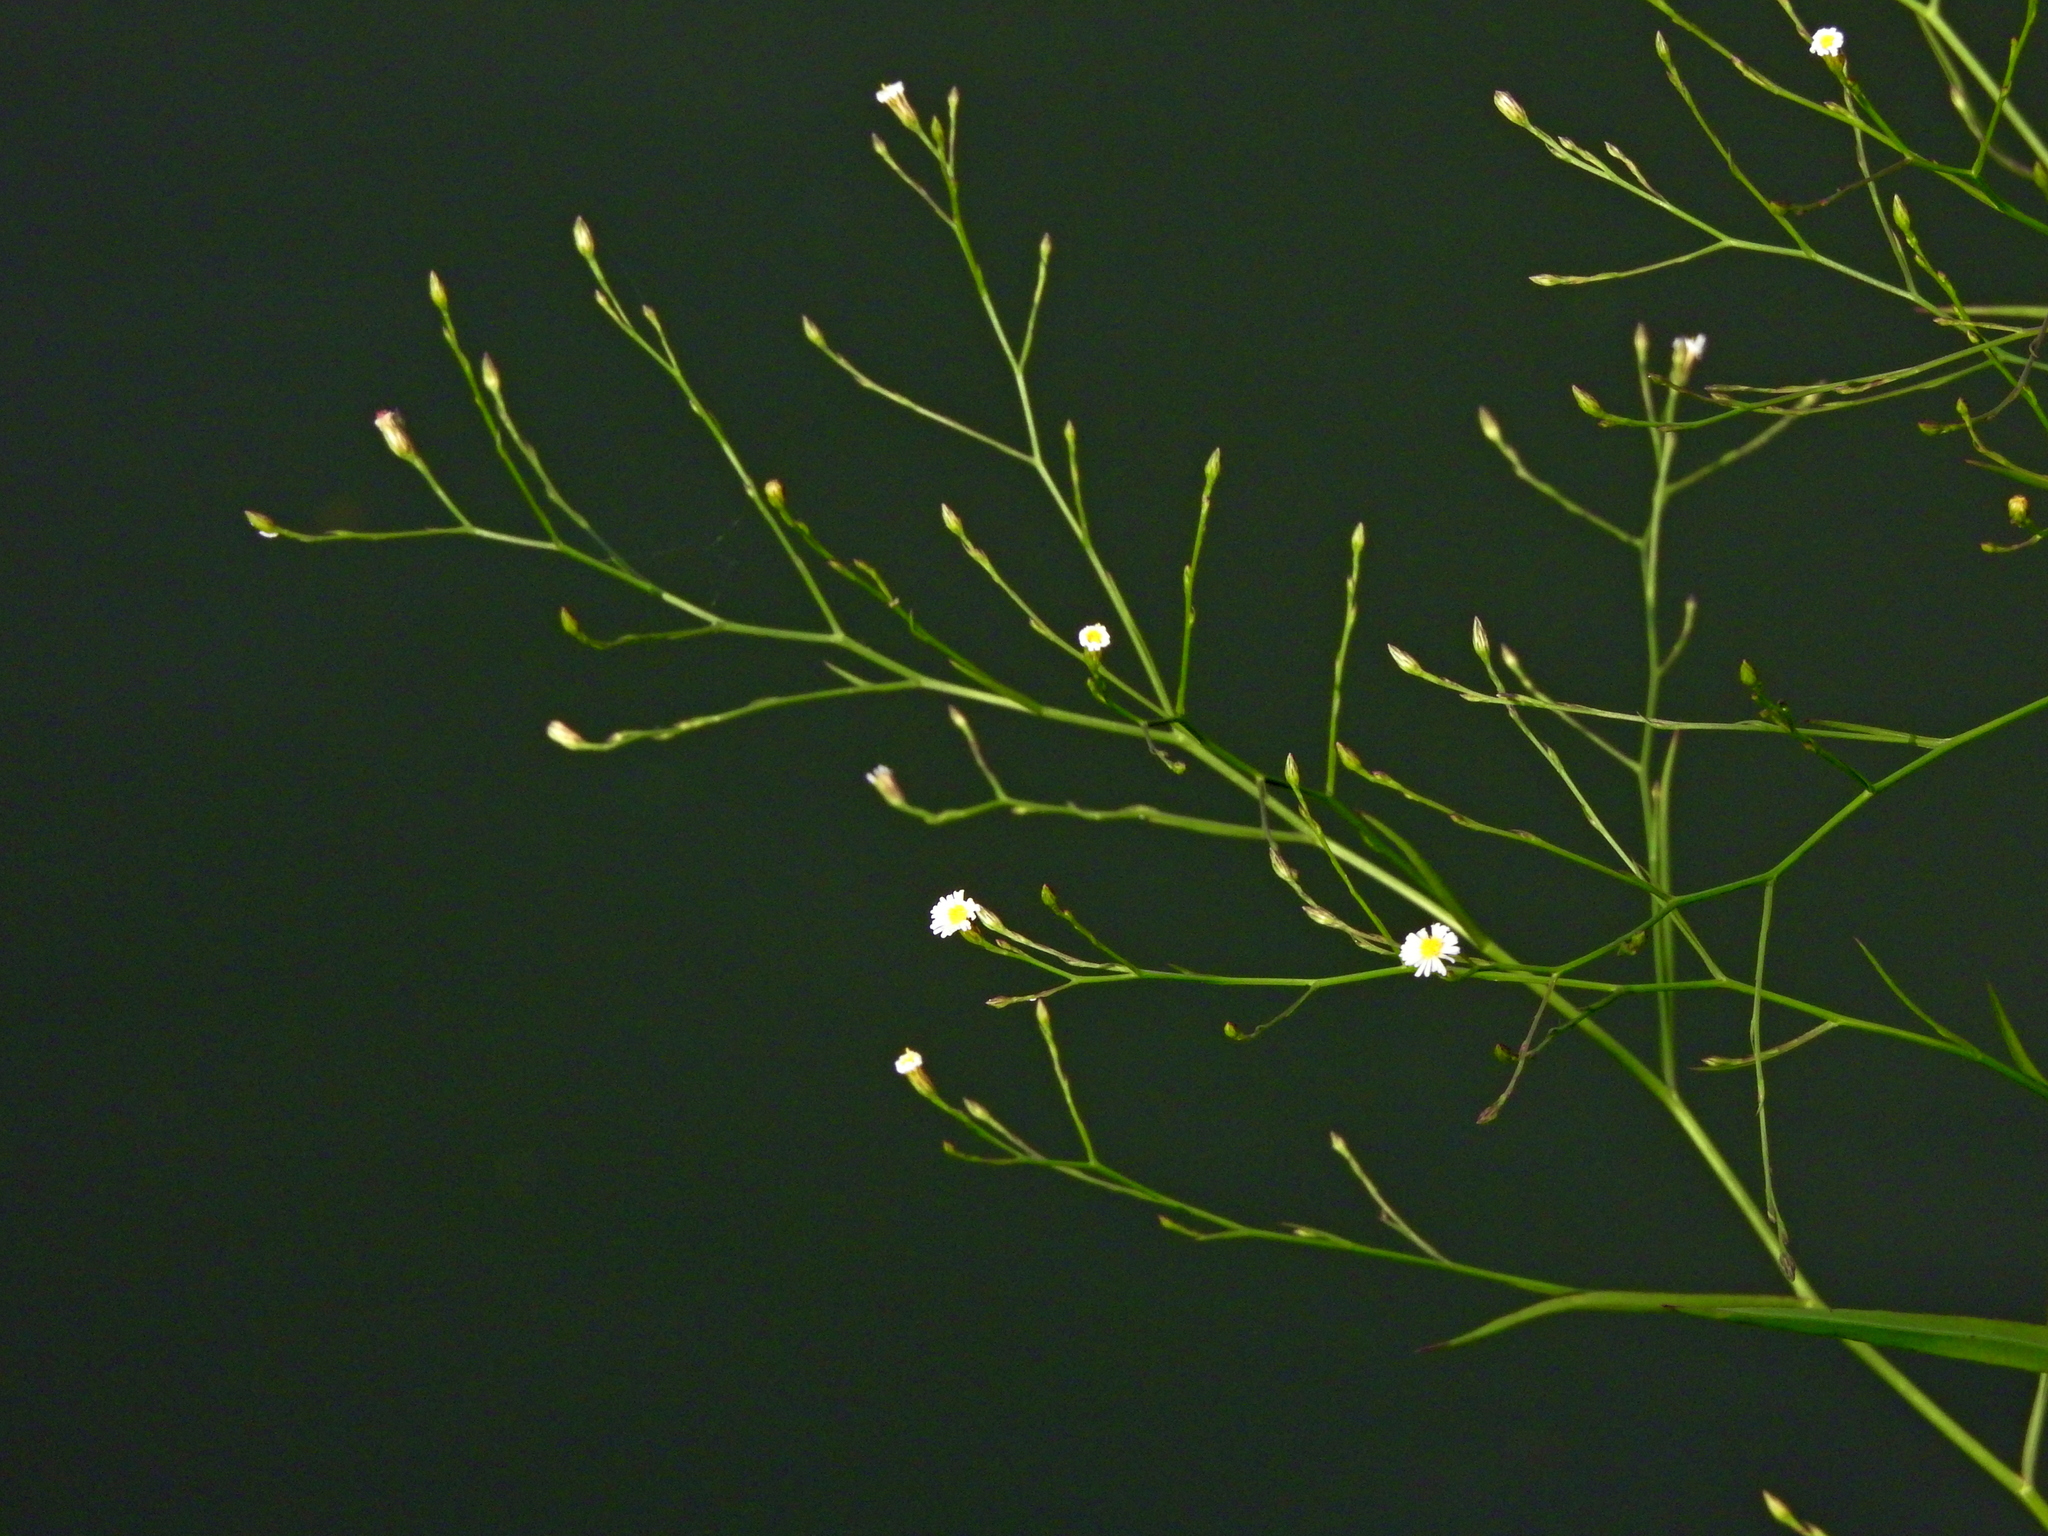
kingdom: Plantae
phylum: Tracheophyta
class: Magnoliopsida
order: Asterales
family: Asteraceae
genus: Symphyotrichum
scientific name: Symphyotrichum subulatum
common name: Annual saltmarsh aster
